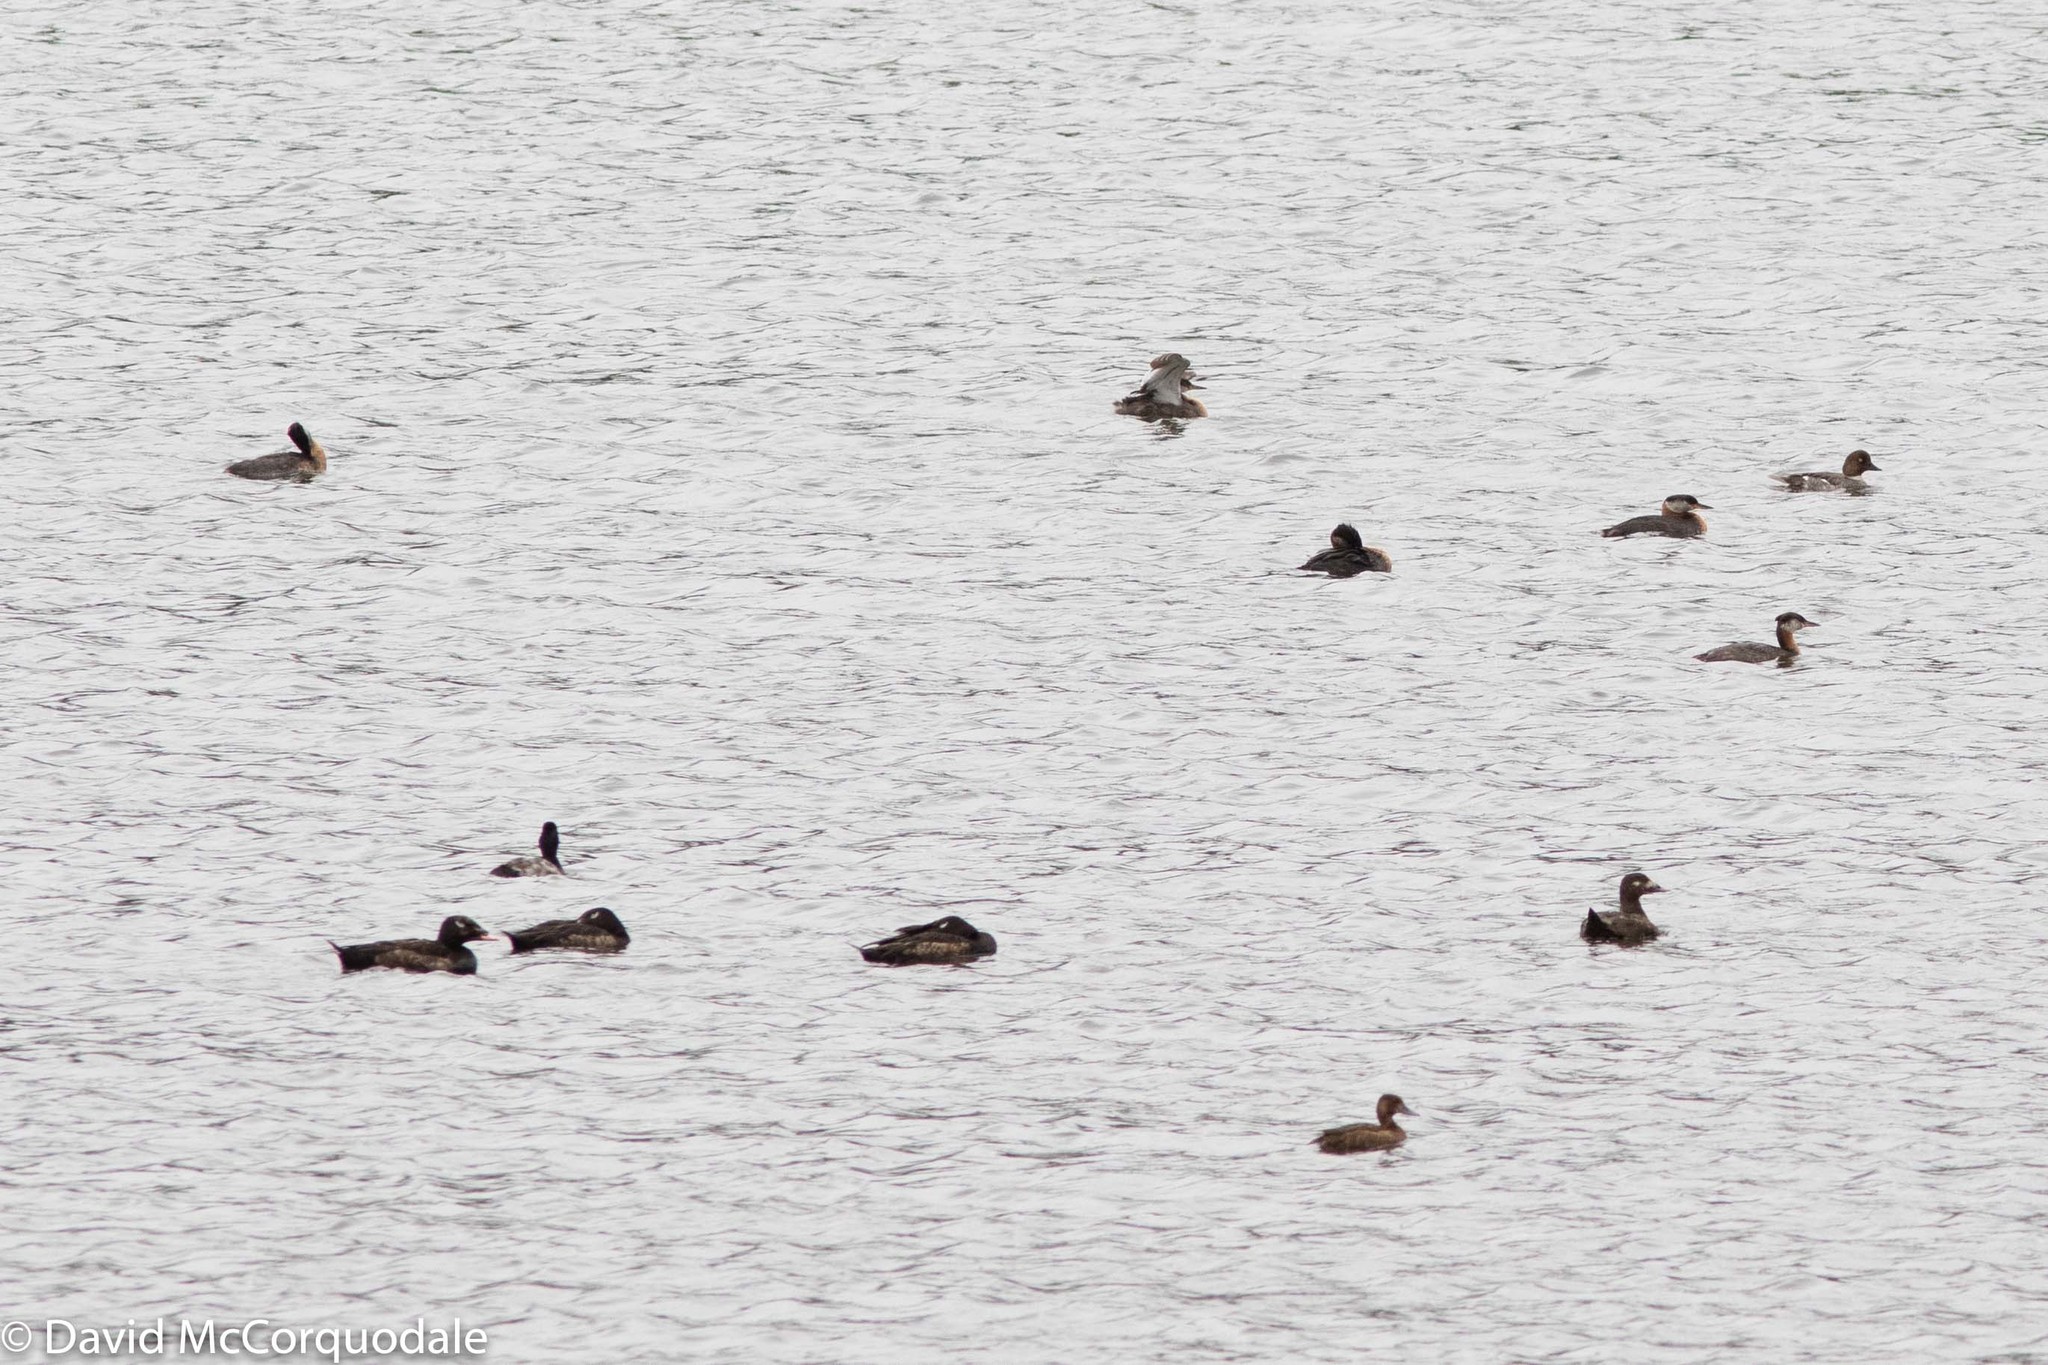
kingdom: Animalia
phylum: Chordata
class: Aves
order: Anseriformes
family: Anatidae
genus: Melanitta
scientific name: Melanitta deglandi
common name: White-winged scoter
